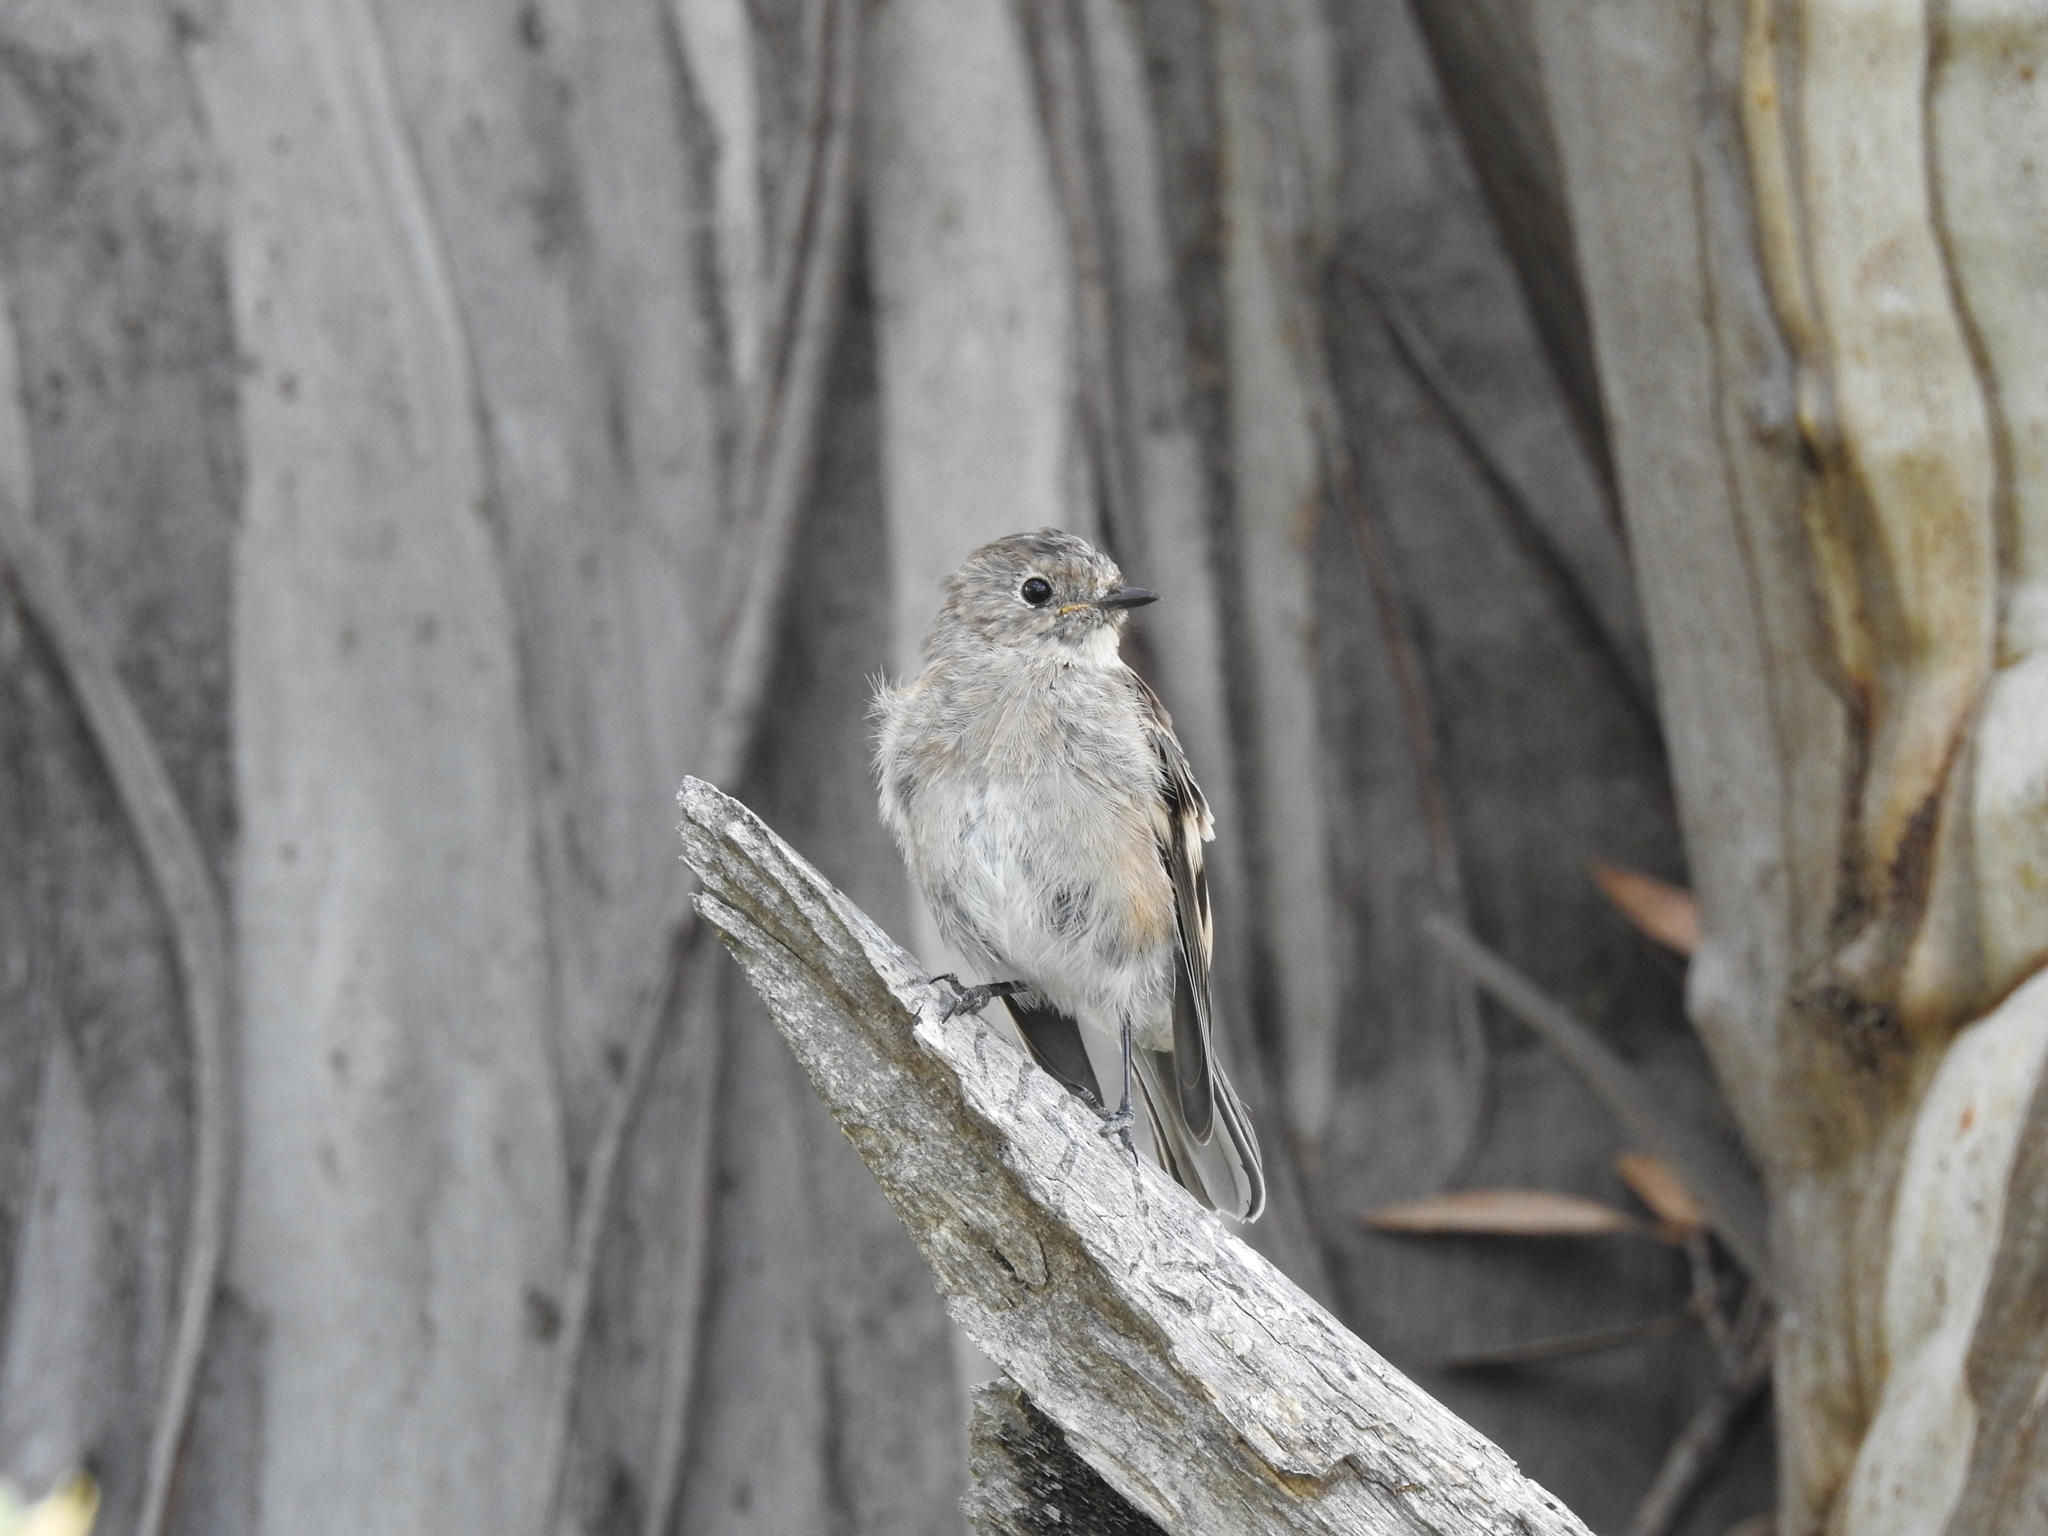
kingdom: Animalia
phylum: Chordata
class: Aves
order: Passeriformes
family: Petroicidae
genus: Petroica
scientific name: Petroica phoenicea
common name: Flame robin
